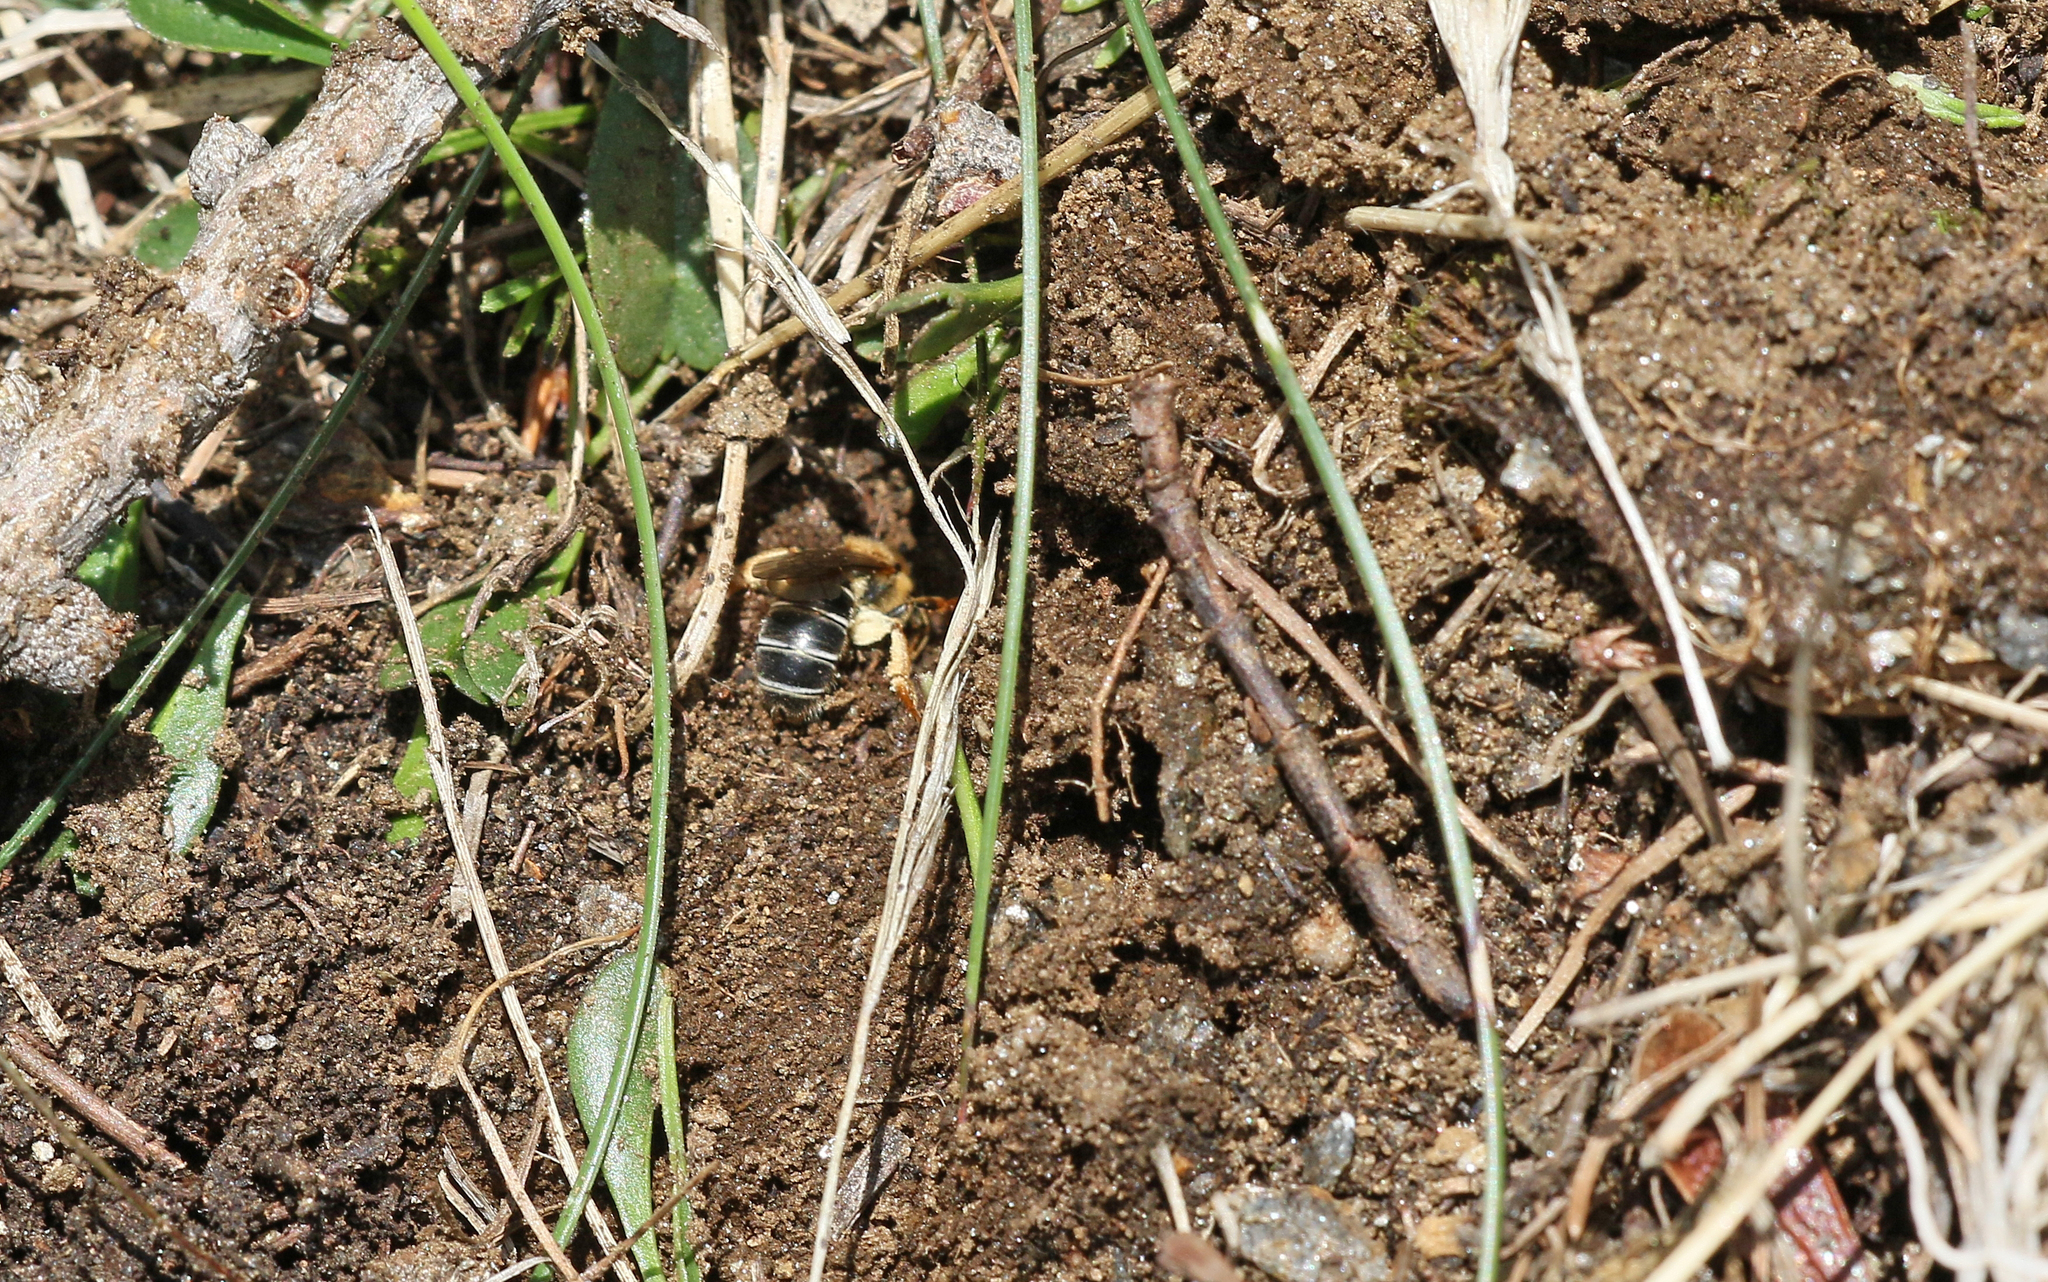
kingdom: Animalia
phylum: Arthropoda
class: Insecta
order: Hymenoptera
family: Halictidae
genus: Halictus
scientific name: Halictus rubicundus
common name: Orange-legged furrow bee
